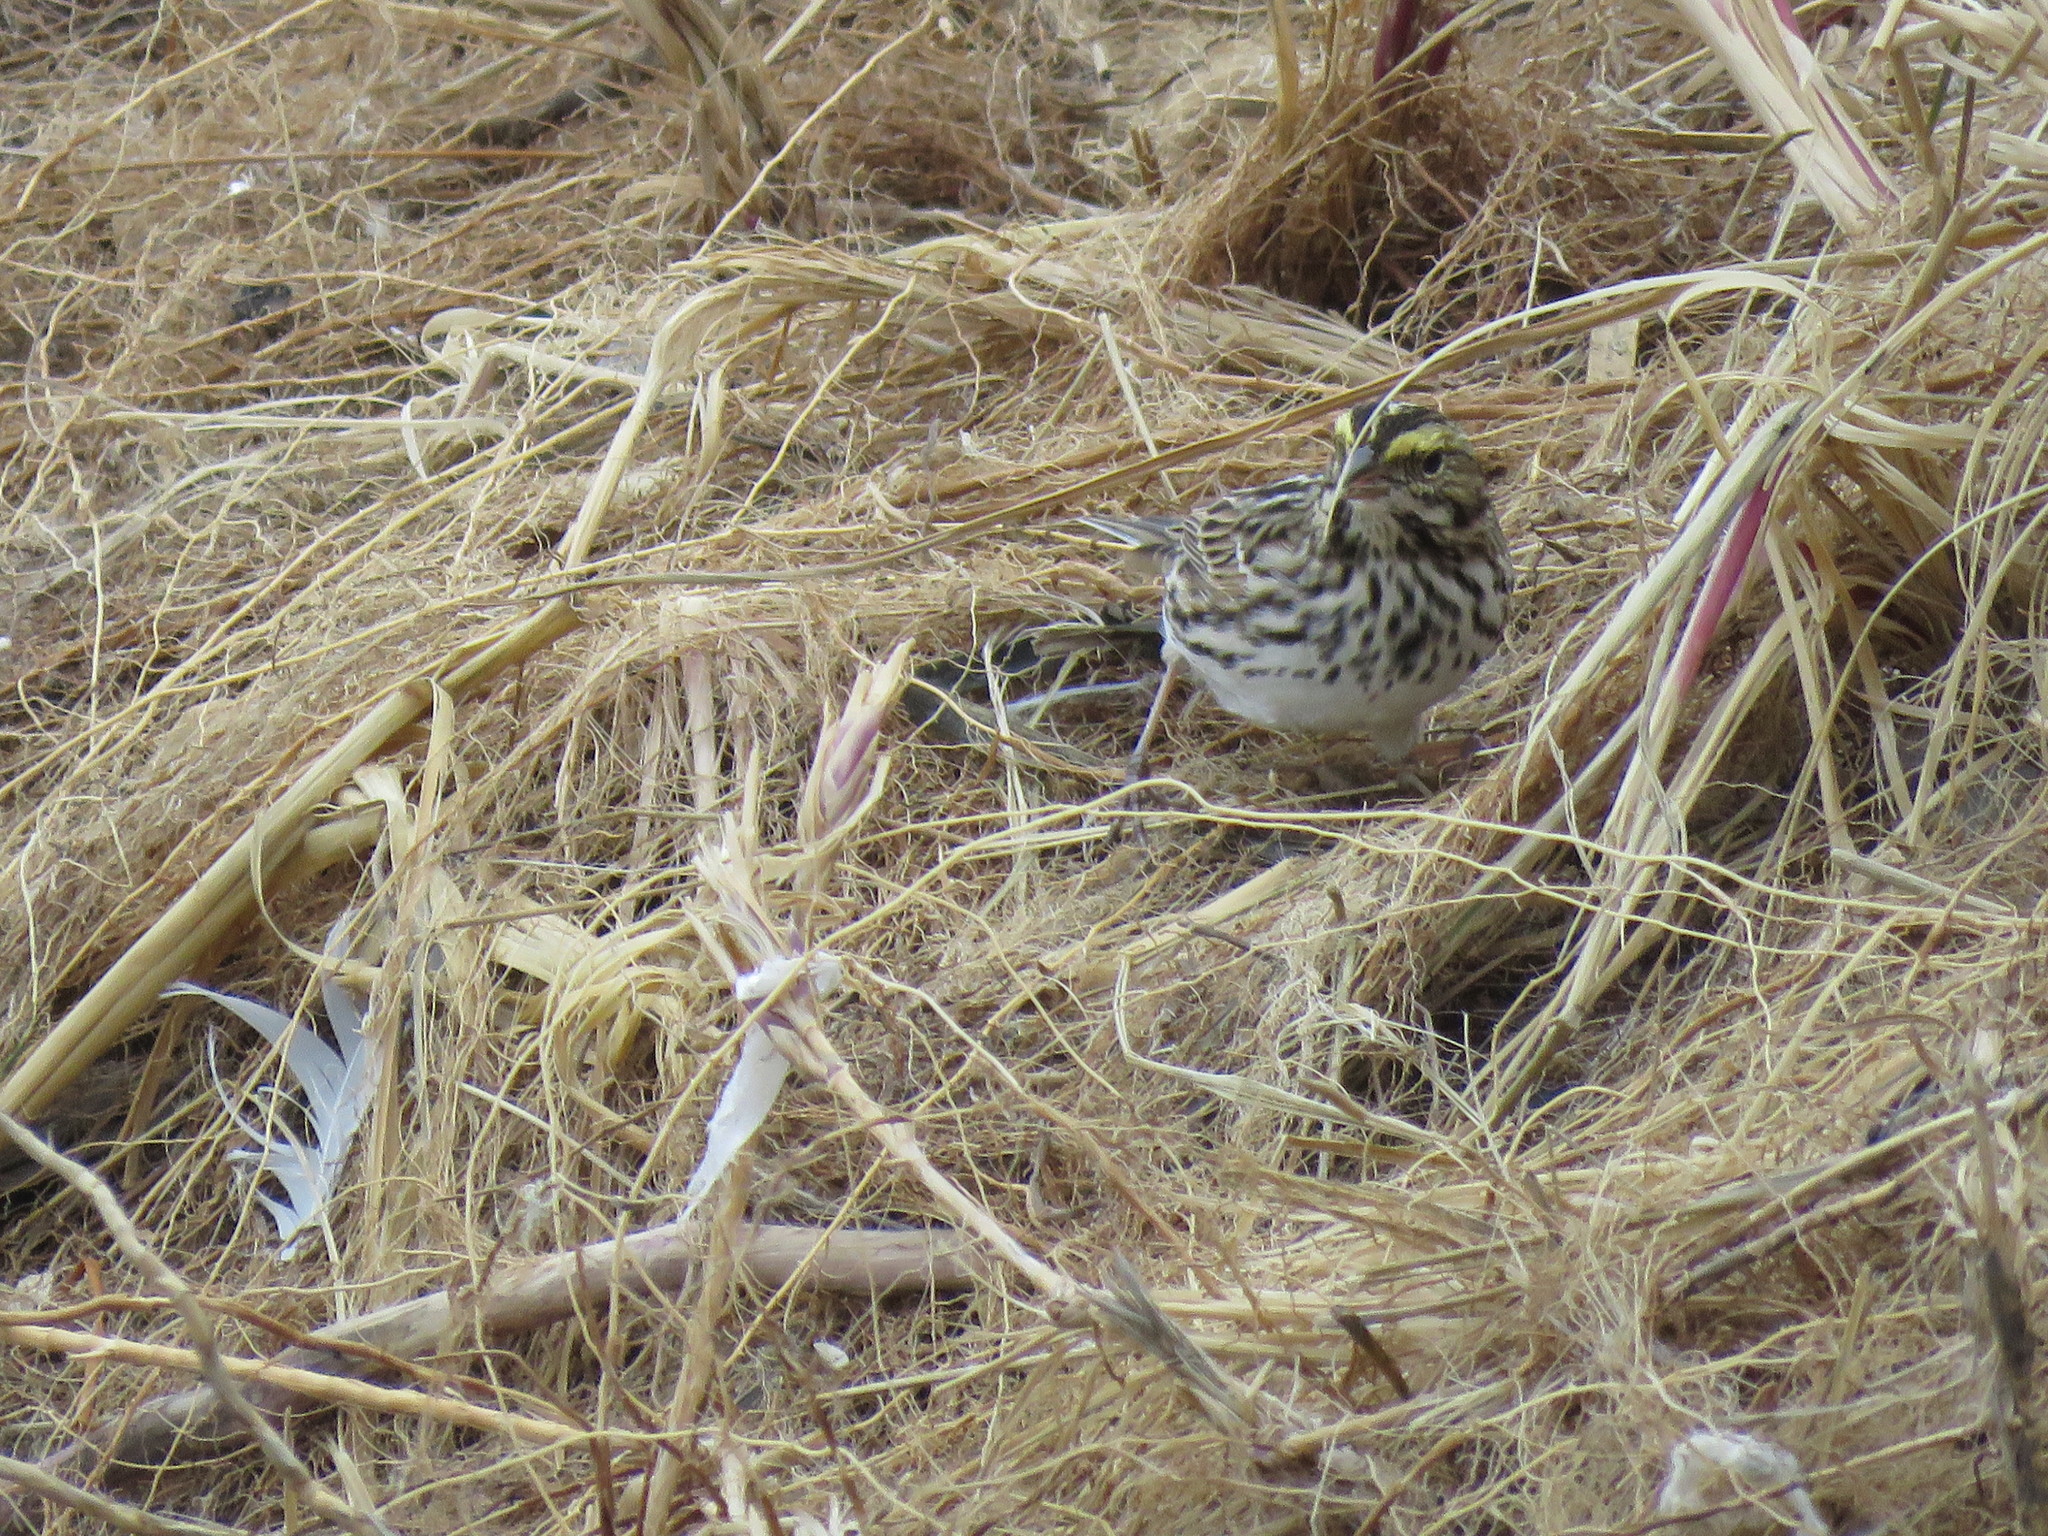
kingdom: Animalia
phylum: Chordata
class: Aves
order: Passeriformes
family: Passerellidae
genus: Passerculus
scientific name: Passerculus sandwichensis
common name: Savannah sparrow
